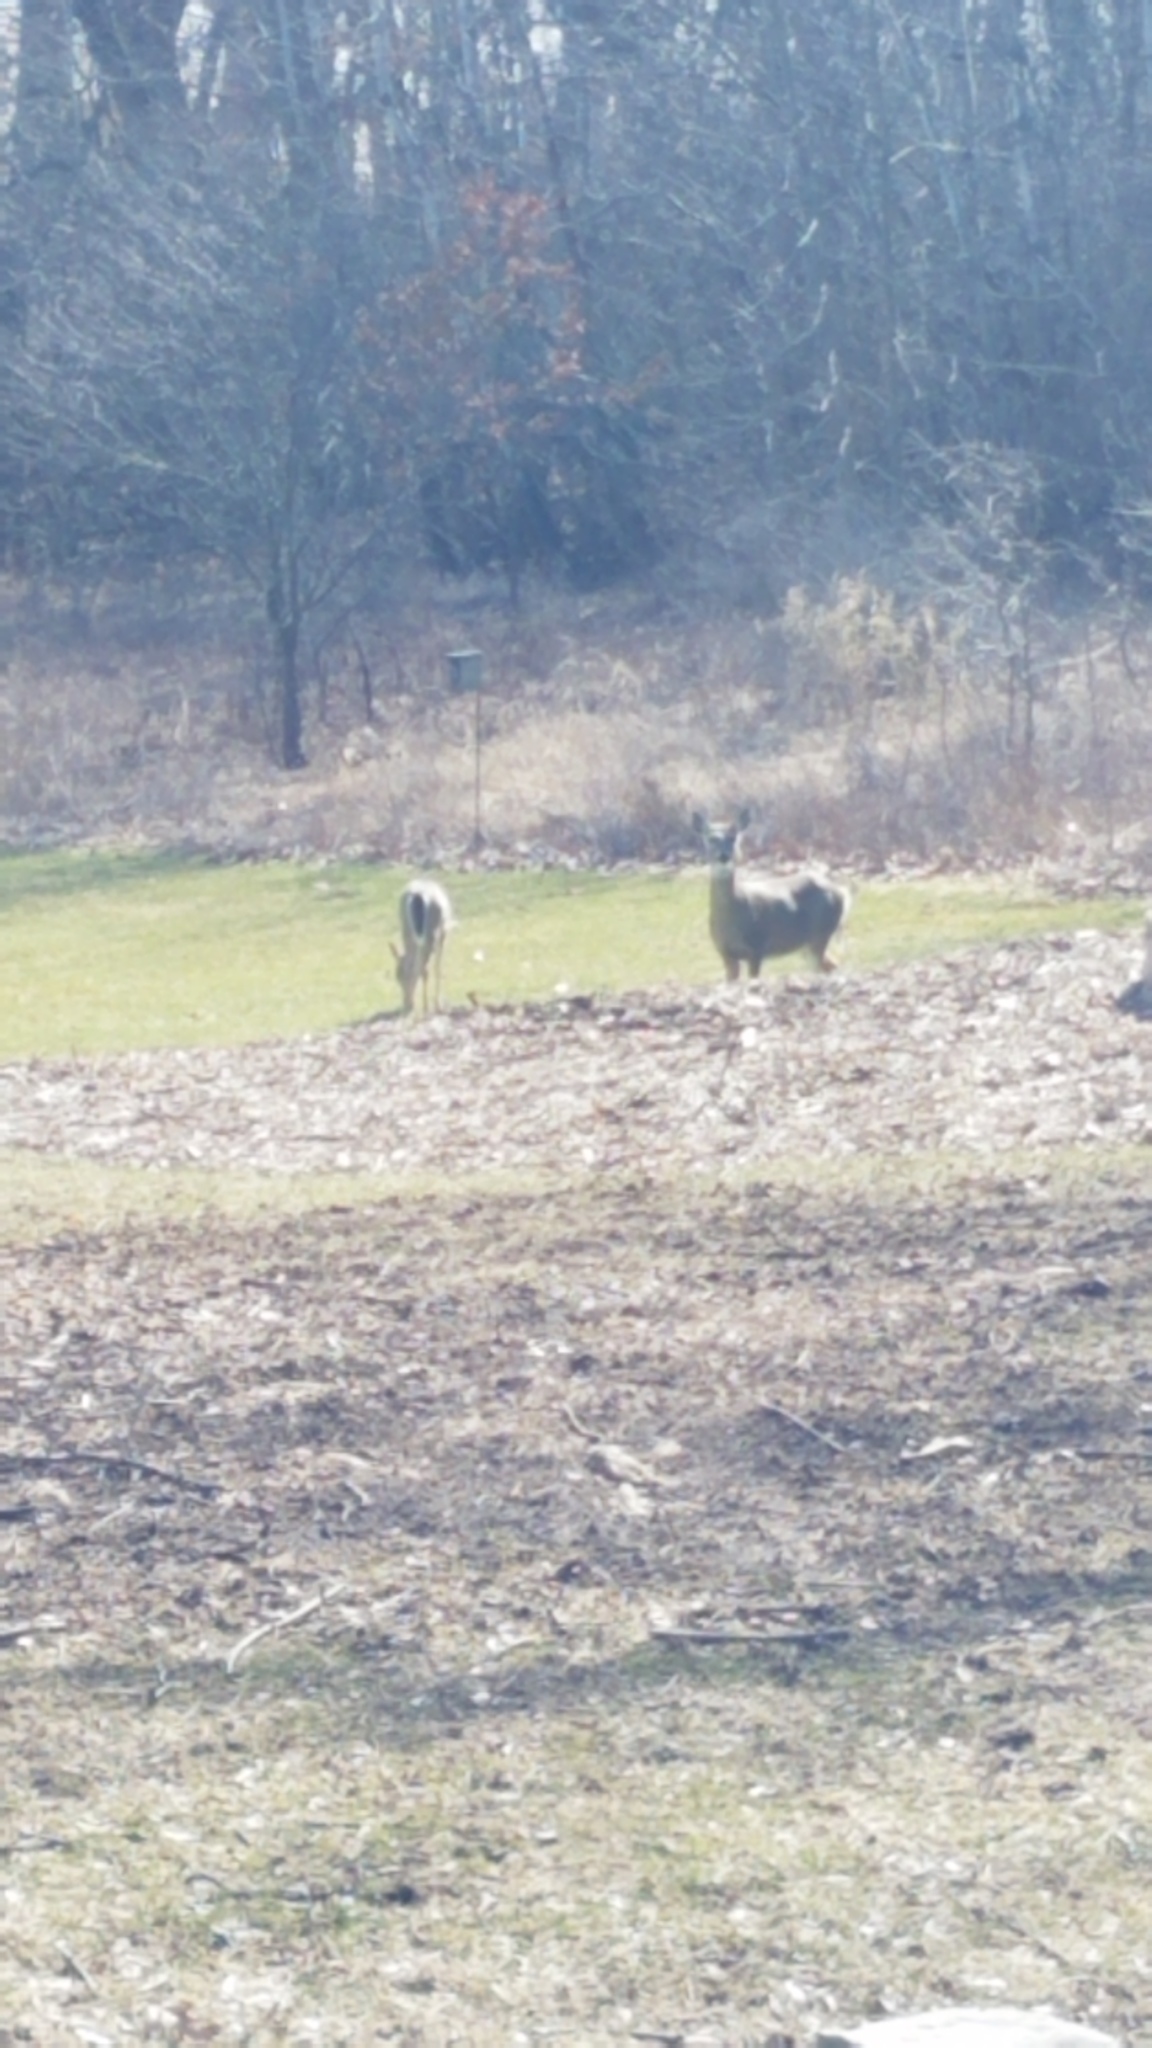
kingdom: Animalia
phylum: Chordata
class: Mammalia
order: Artiodactyla
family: Cervidae
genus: Odocoileus
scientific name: Odocoileus virginianus
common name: White-tailed deer
